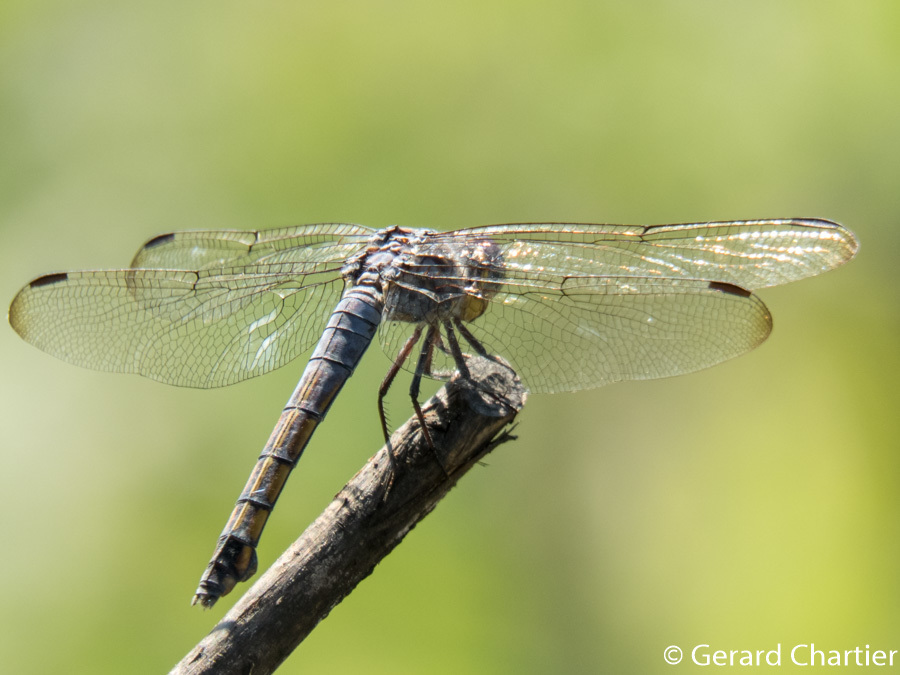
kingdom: Animalia
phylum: Arthropoda
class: Insecta
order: Odonata
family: Libellulidae
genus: Potamarcha
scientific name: Potamarcha congener
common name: Blue chaser
